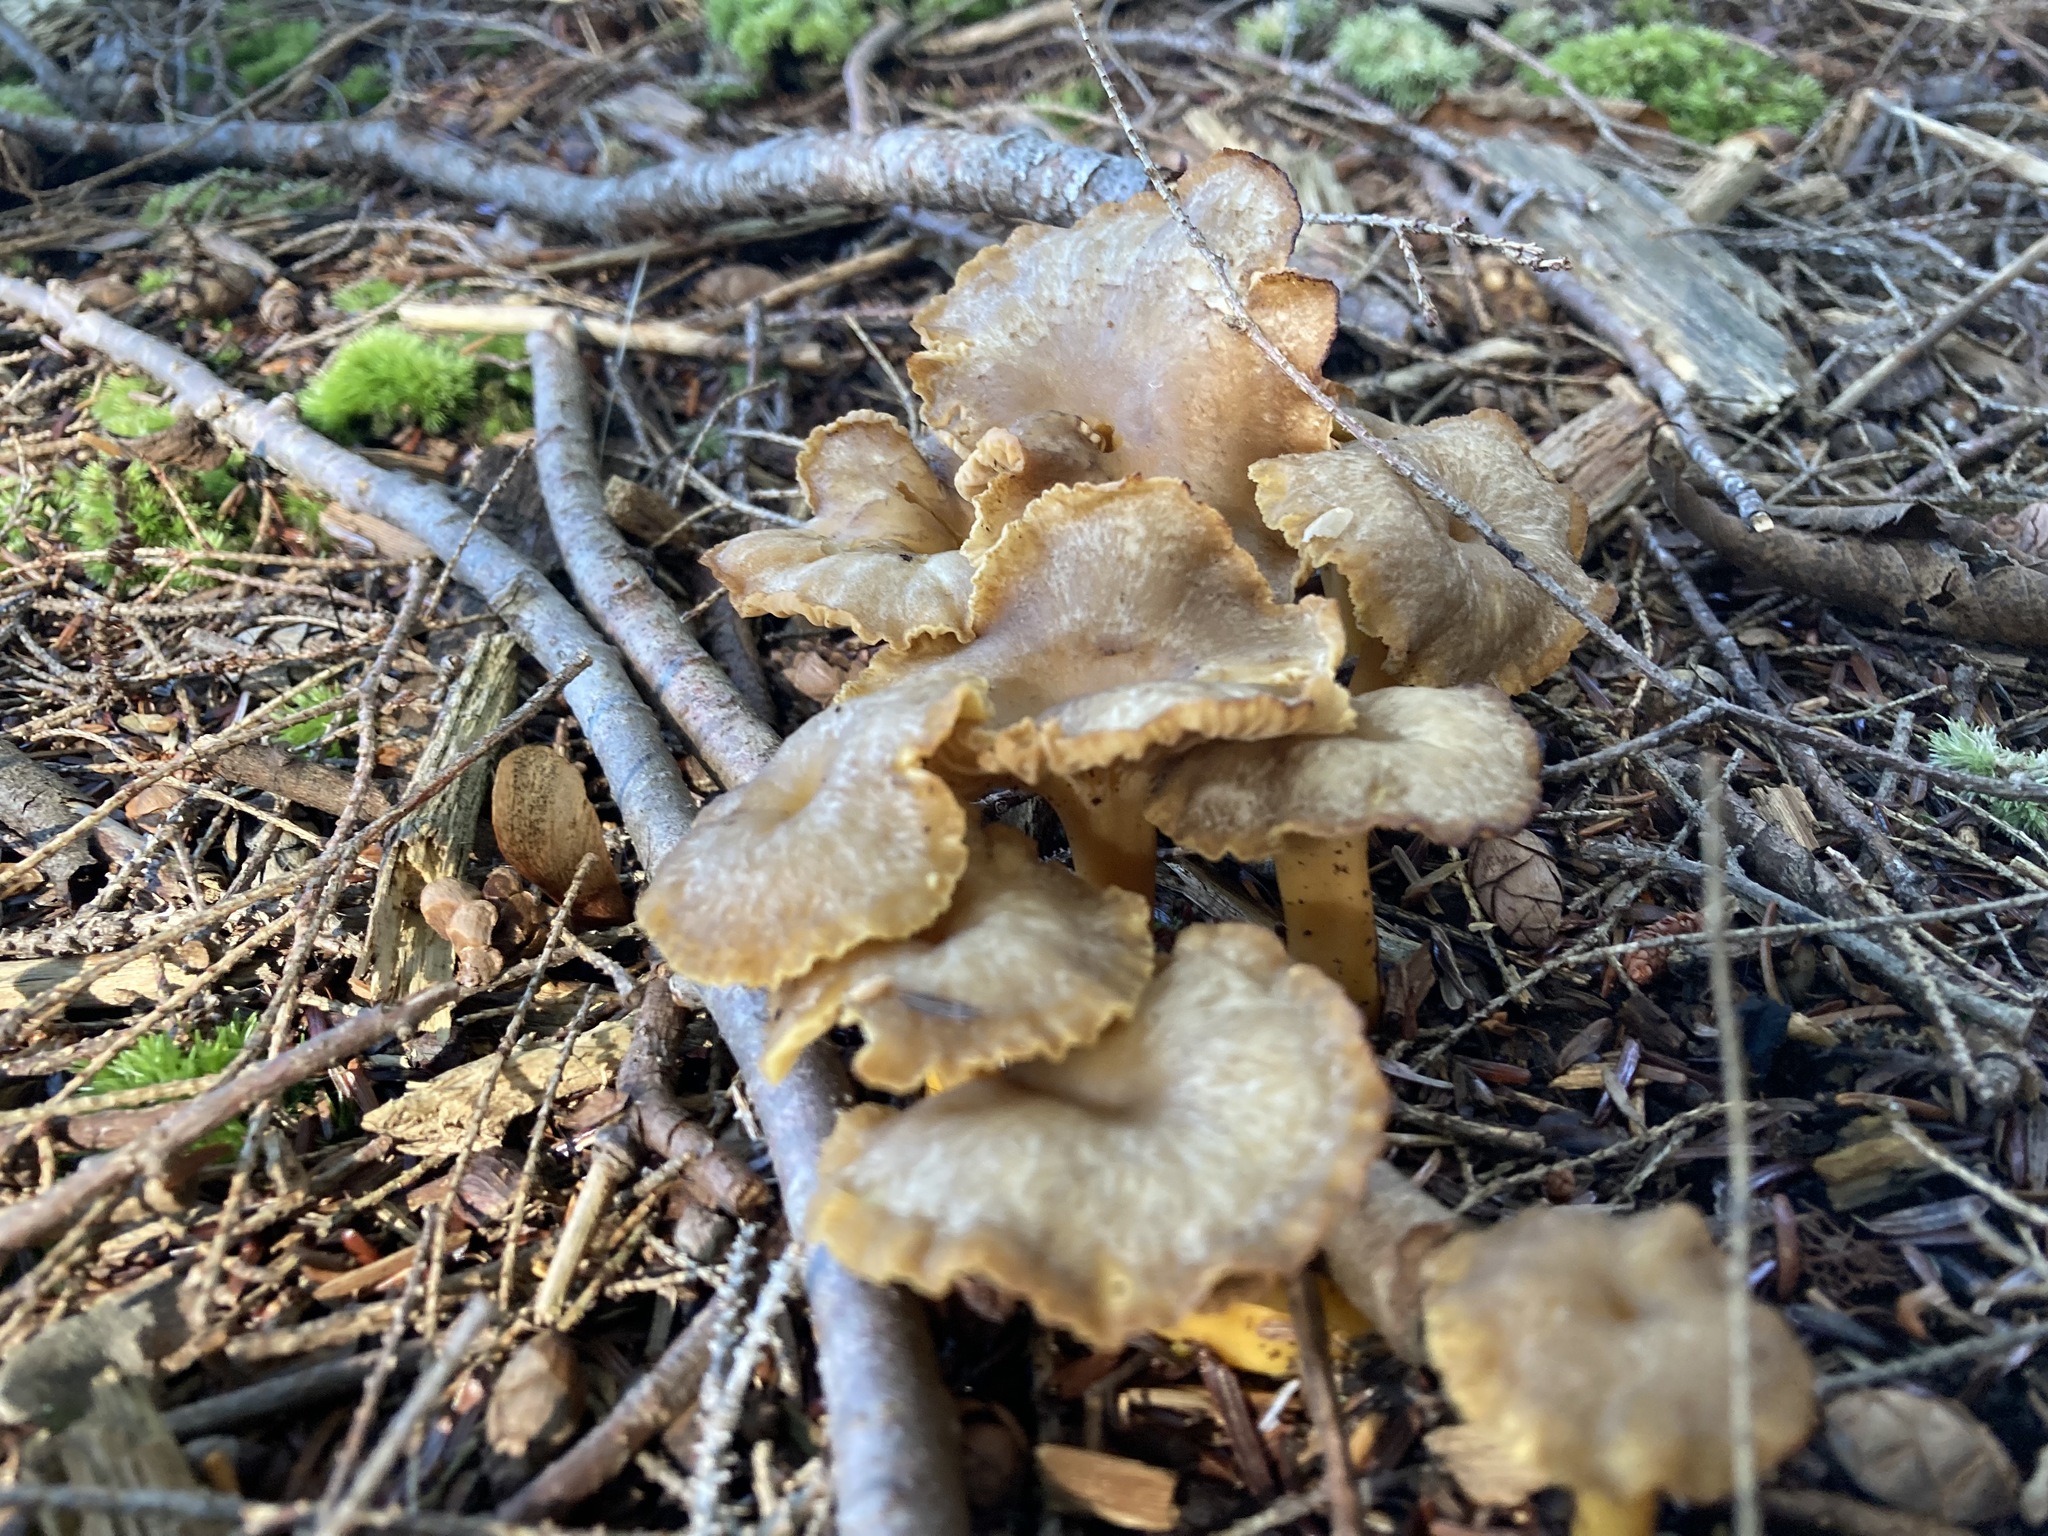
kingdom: Fungi
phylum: Basidiomycota
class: Agaricomycetes
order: Cantharellales
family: Hydnaceae
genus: Craterellus
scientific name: Craterellus tubaeformis
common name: Yellowfoot
